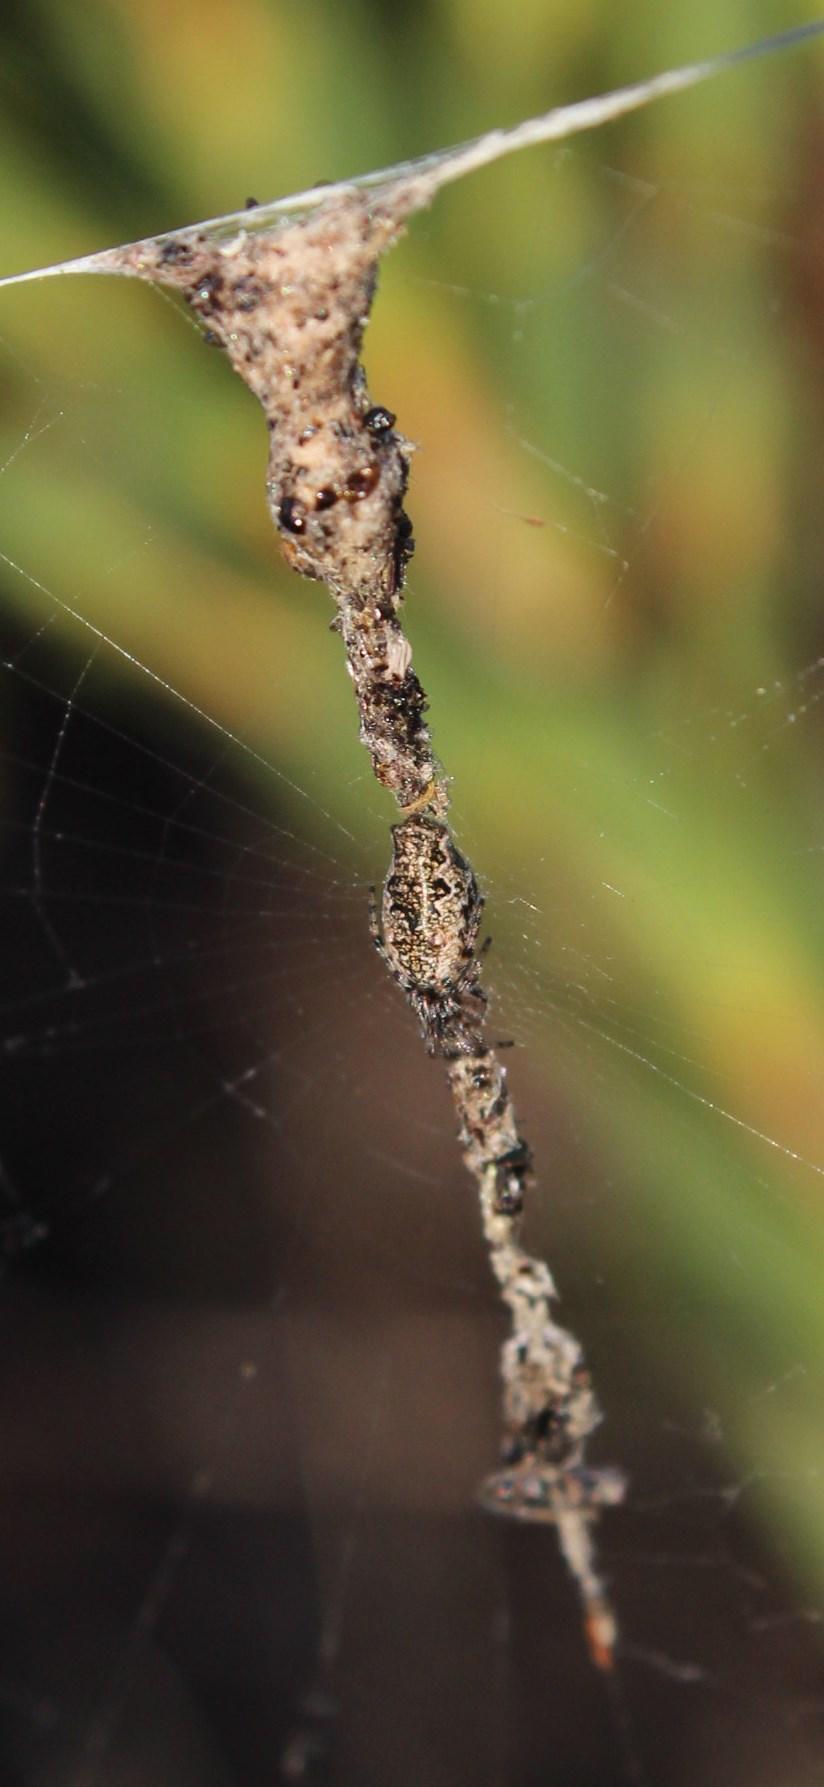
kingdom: Animalia
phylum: Arthropoda
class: Arachnida
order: Araneae
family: Araneidae
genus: Cyclosa
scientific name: Cyclosa oculata
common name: Trashline orbweaver
